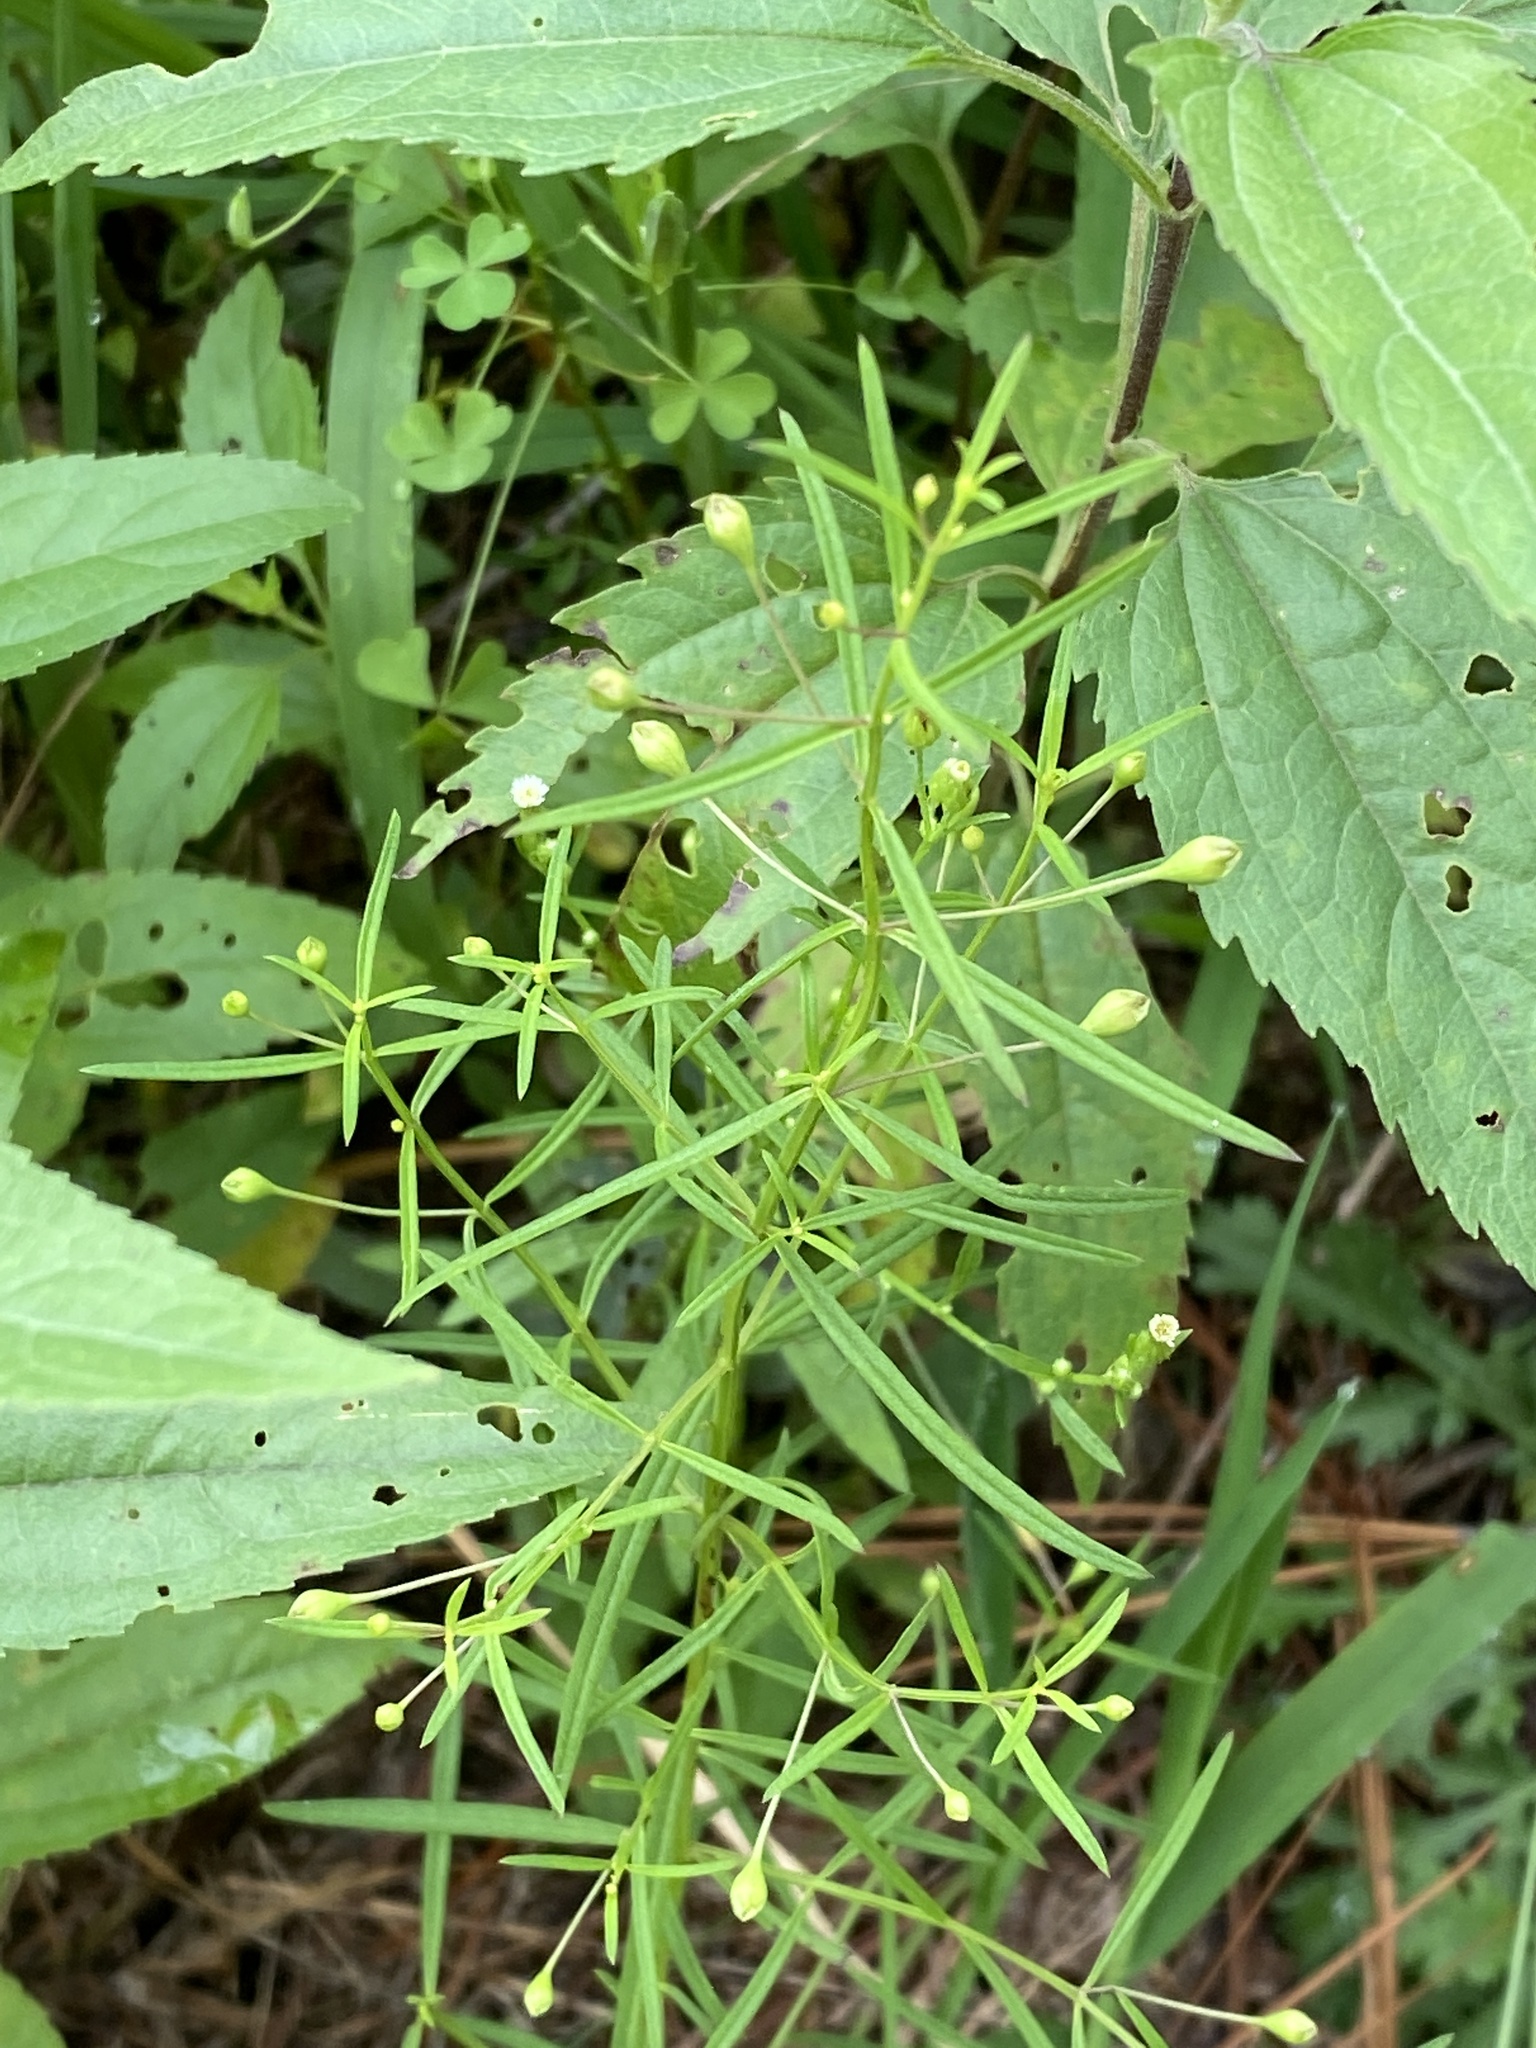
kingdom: Plantae
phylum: Tracheophyta
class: Magnoliopsida
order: Lamiales
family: Orobanchaceae
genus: Agalinis
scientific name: Agalinis tenuifolia
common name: Slender agalinis
